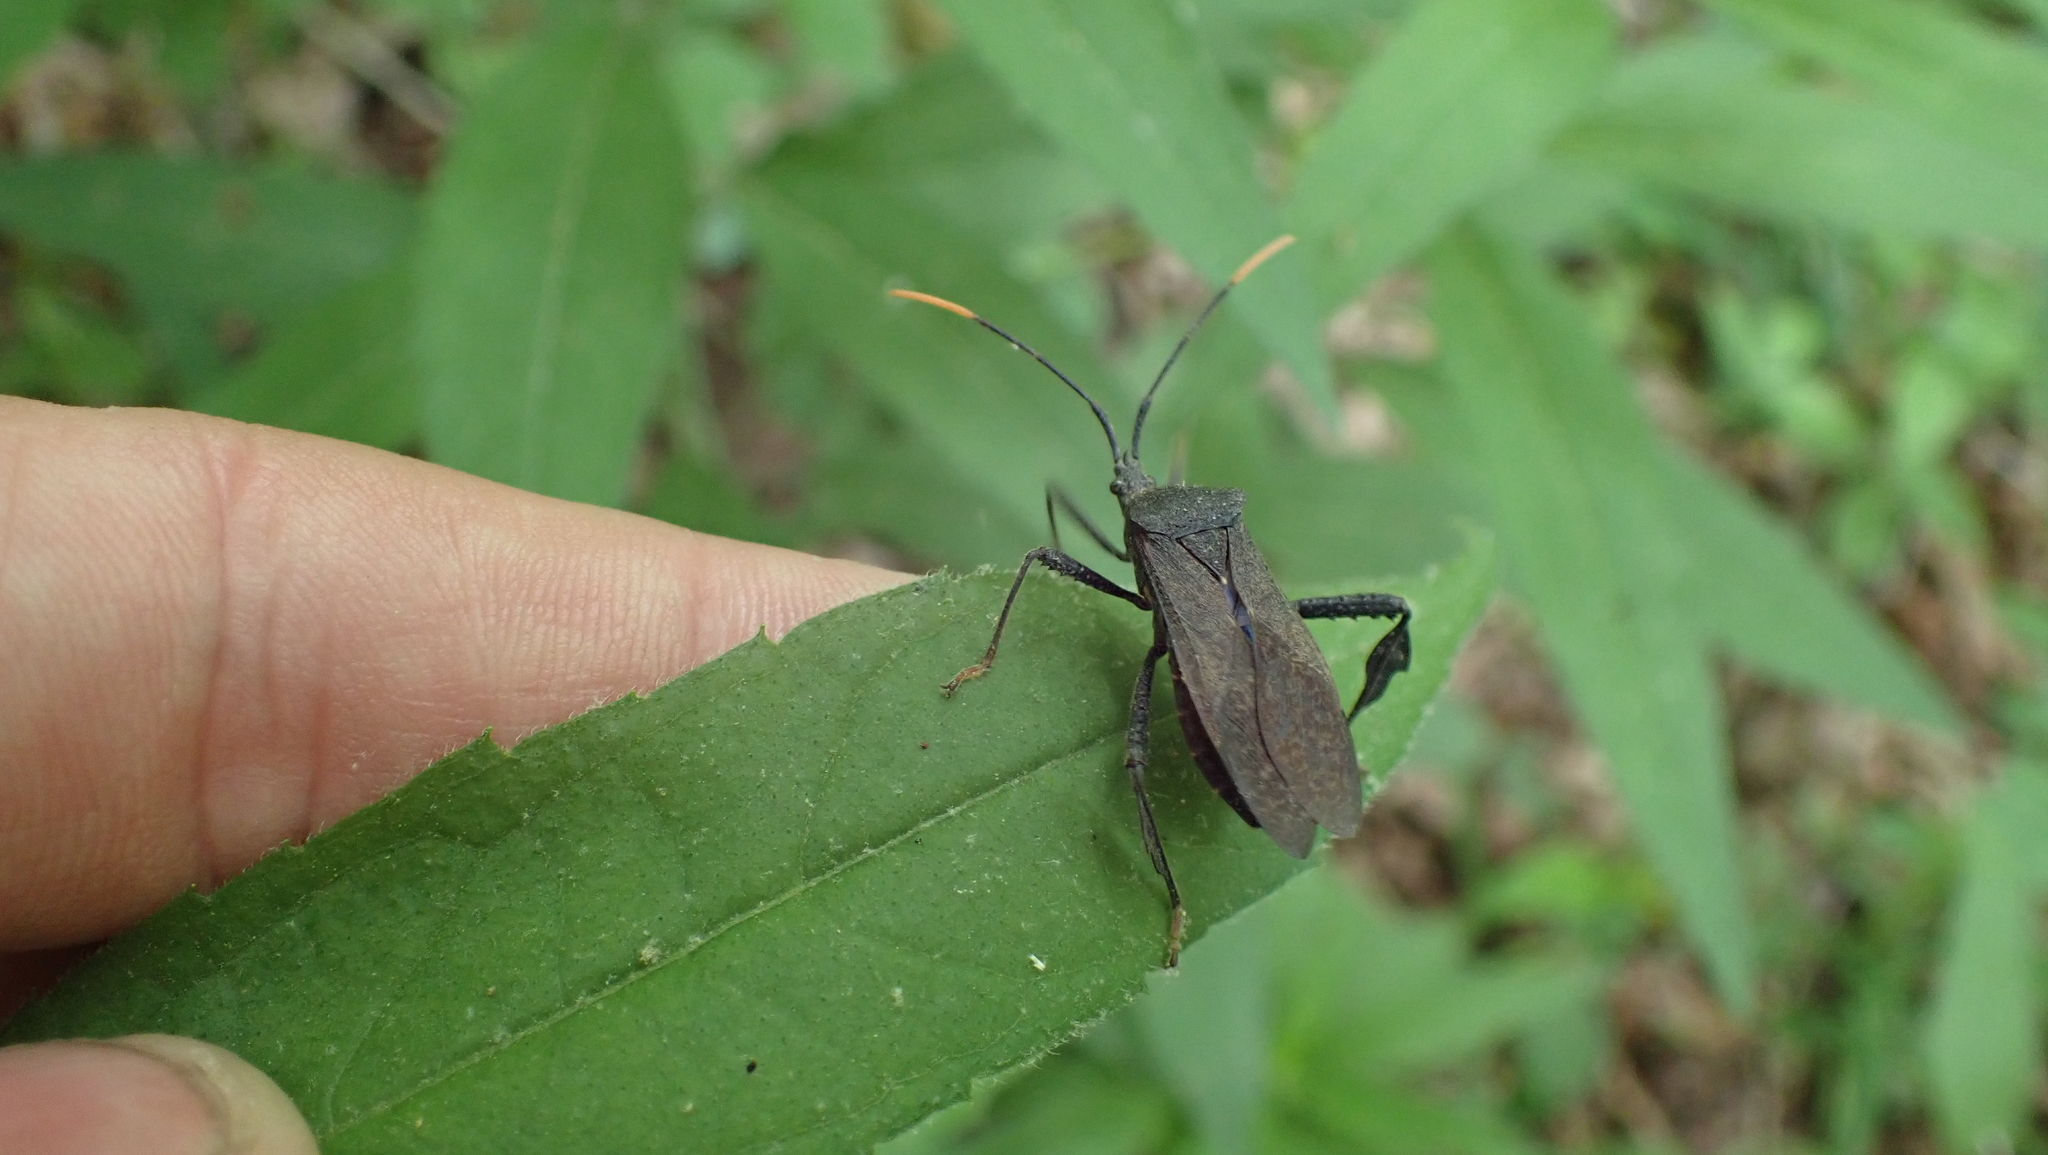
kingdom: Animalia
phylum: Arthropoda
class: Insecta
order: Hemiptera
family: Coreidae
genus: Acanthocephala
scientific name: Acanthocephala terminalis
